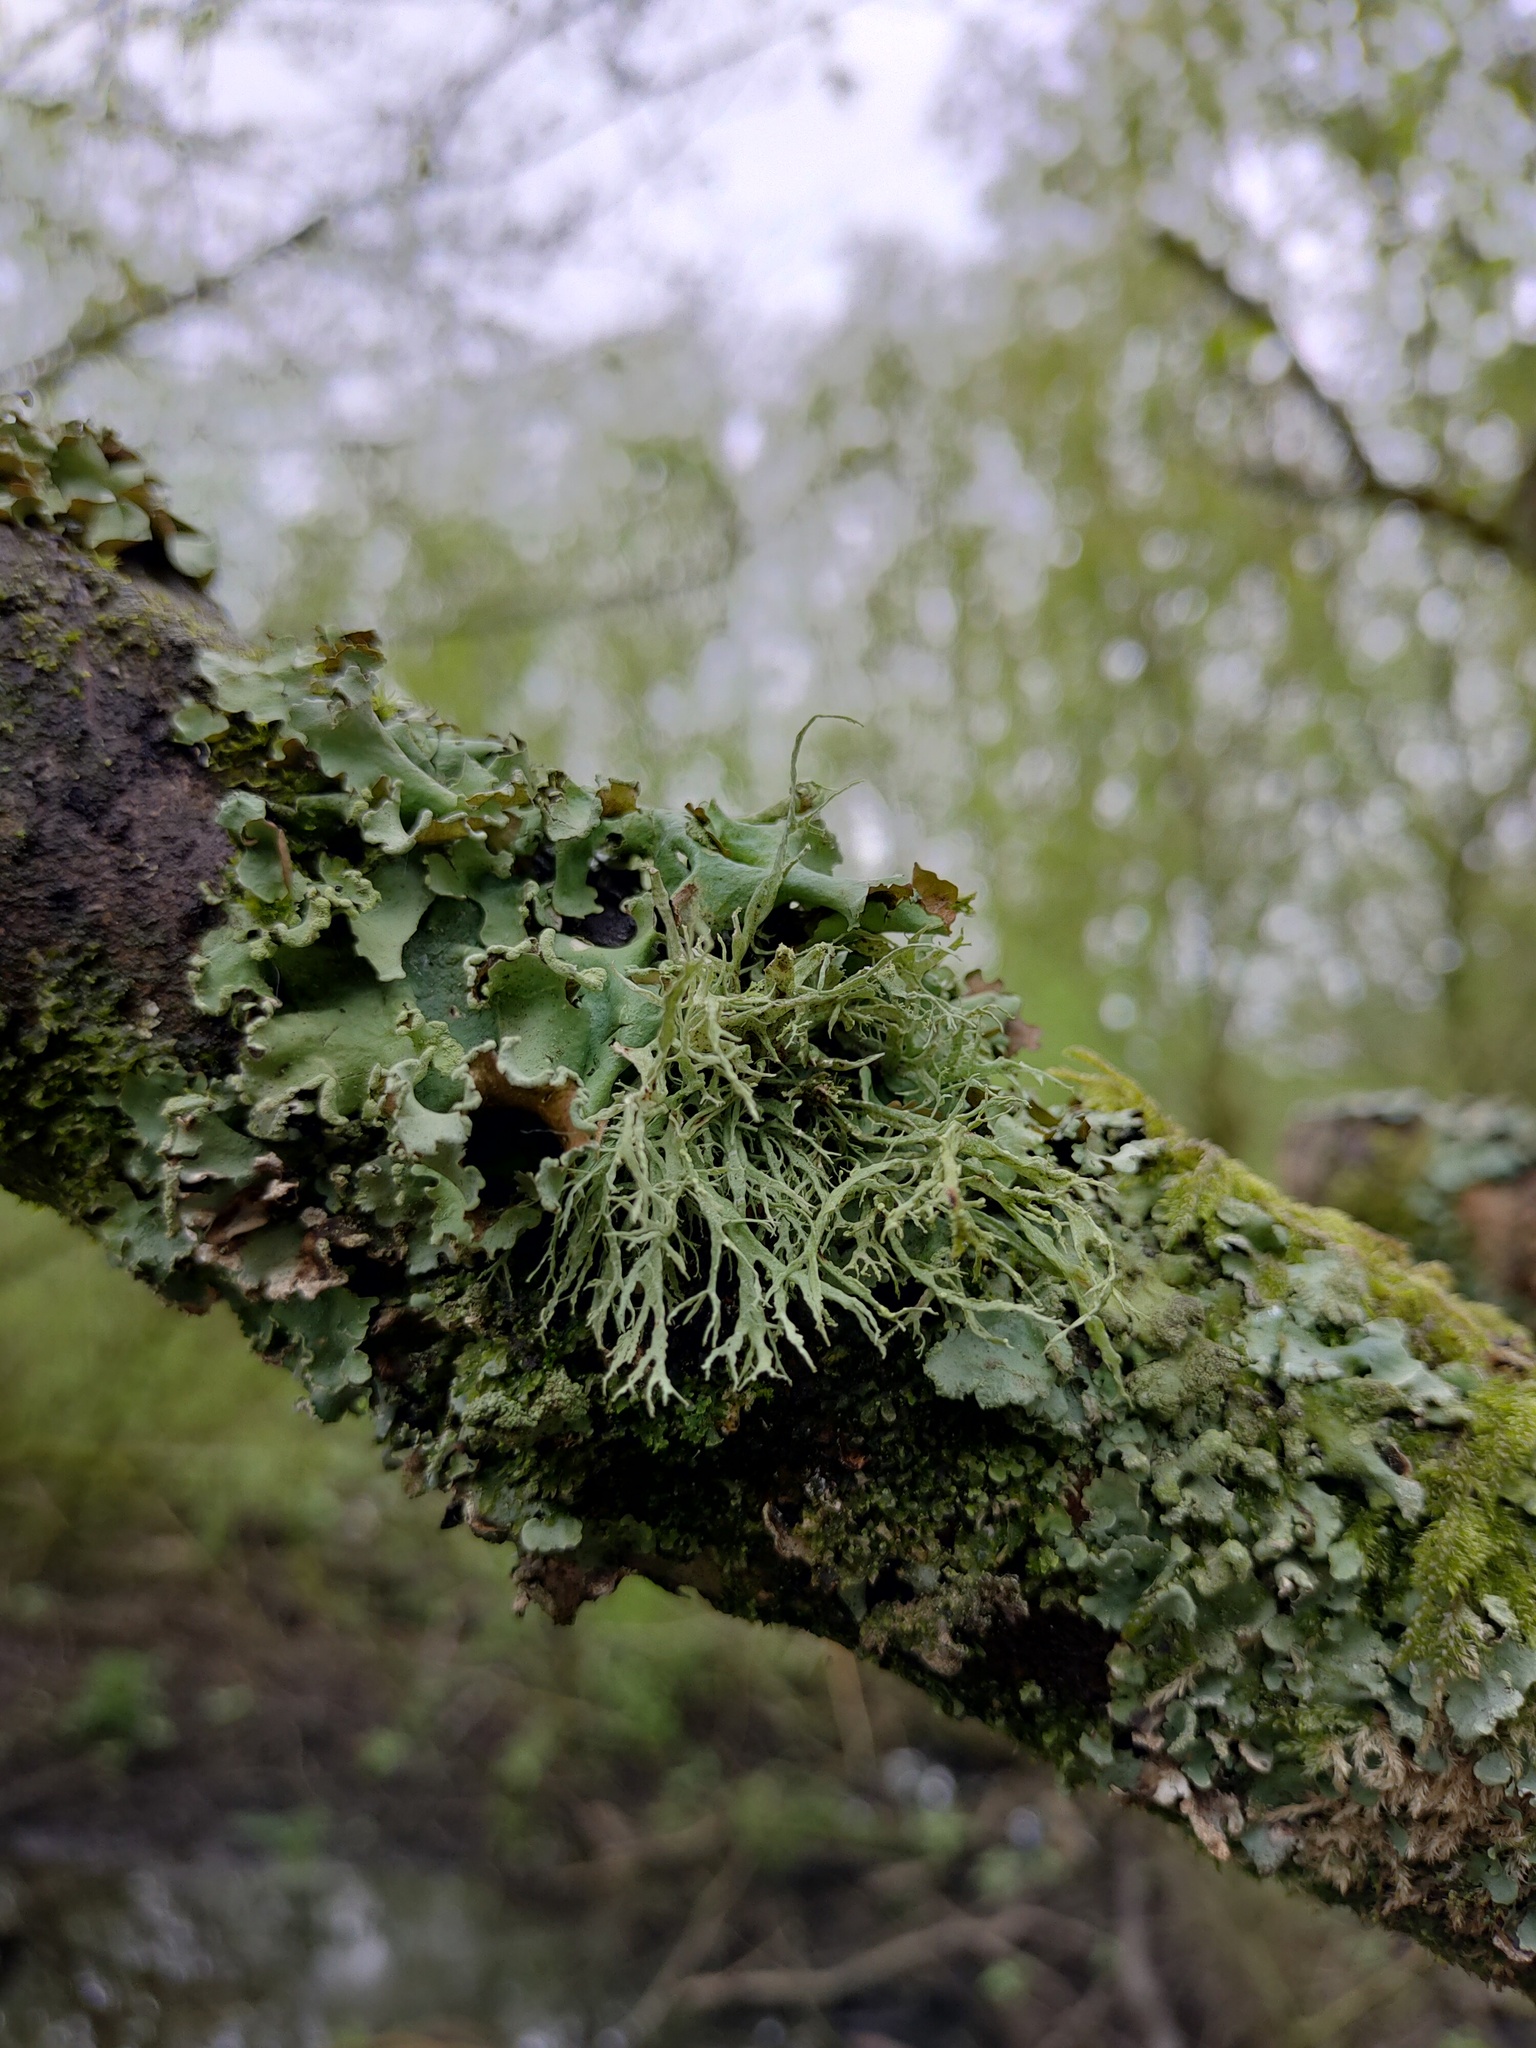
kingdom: Fungi
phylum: Ascomycota
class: Lecanoromycetes
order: Lecanorales
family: Ramalinaceae
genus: Ramalina
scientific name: Ramalina farinacea
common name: Farinose cartilage lichen
